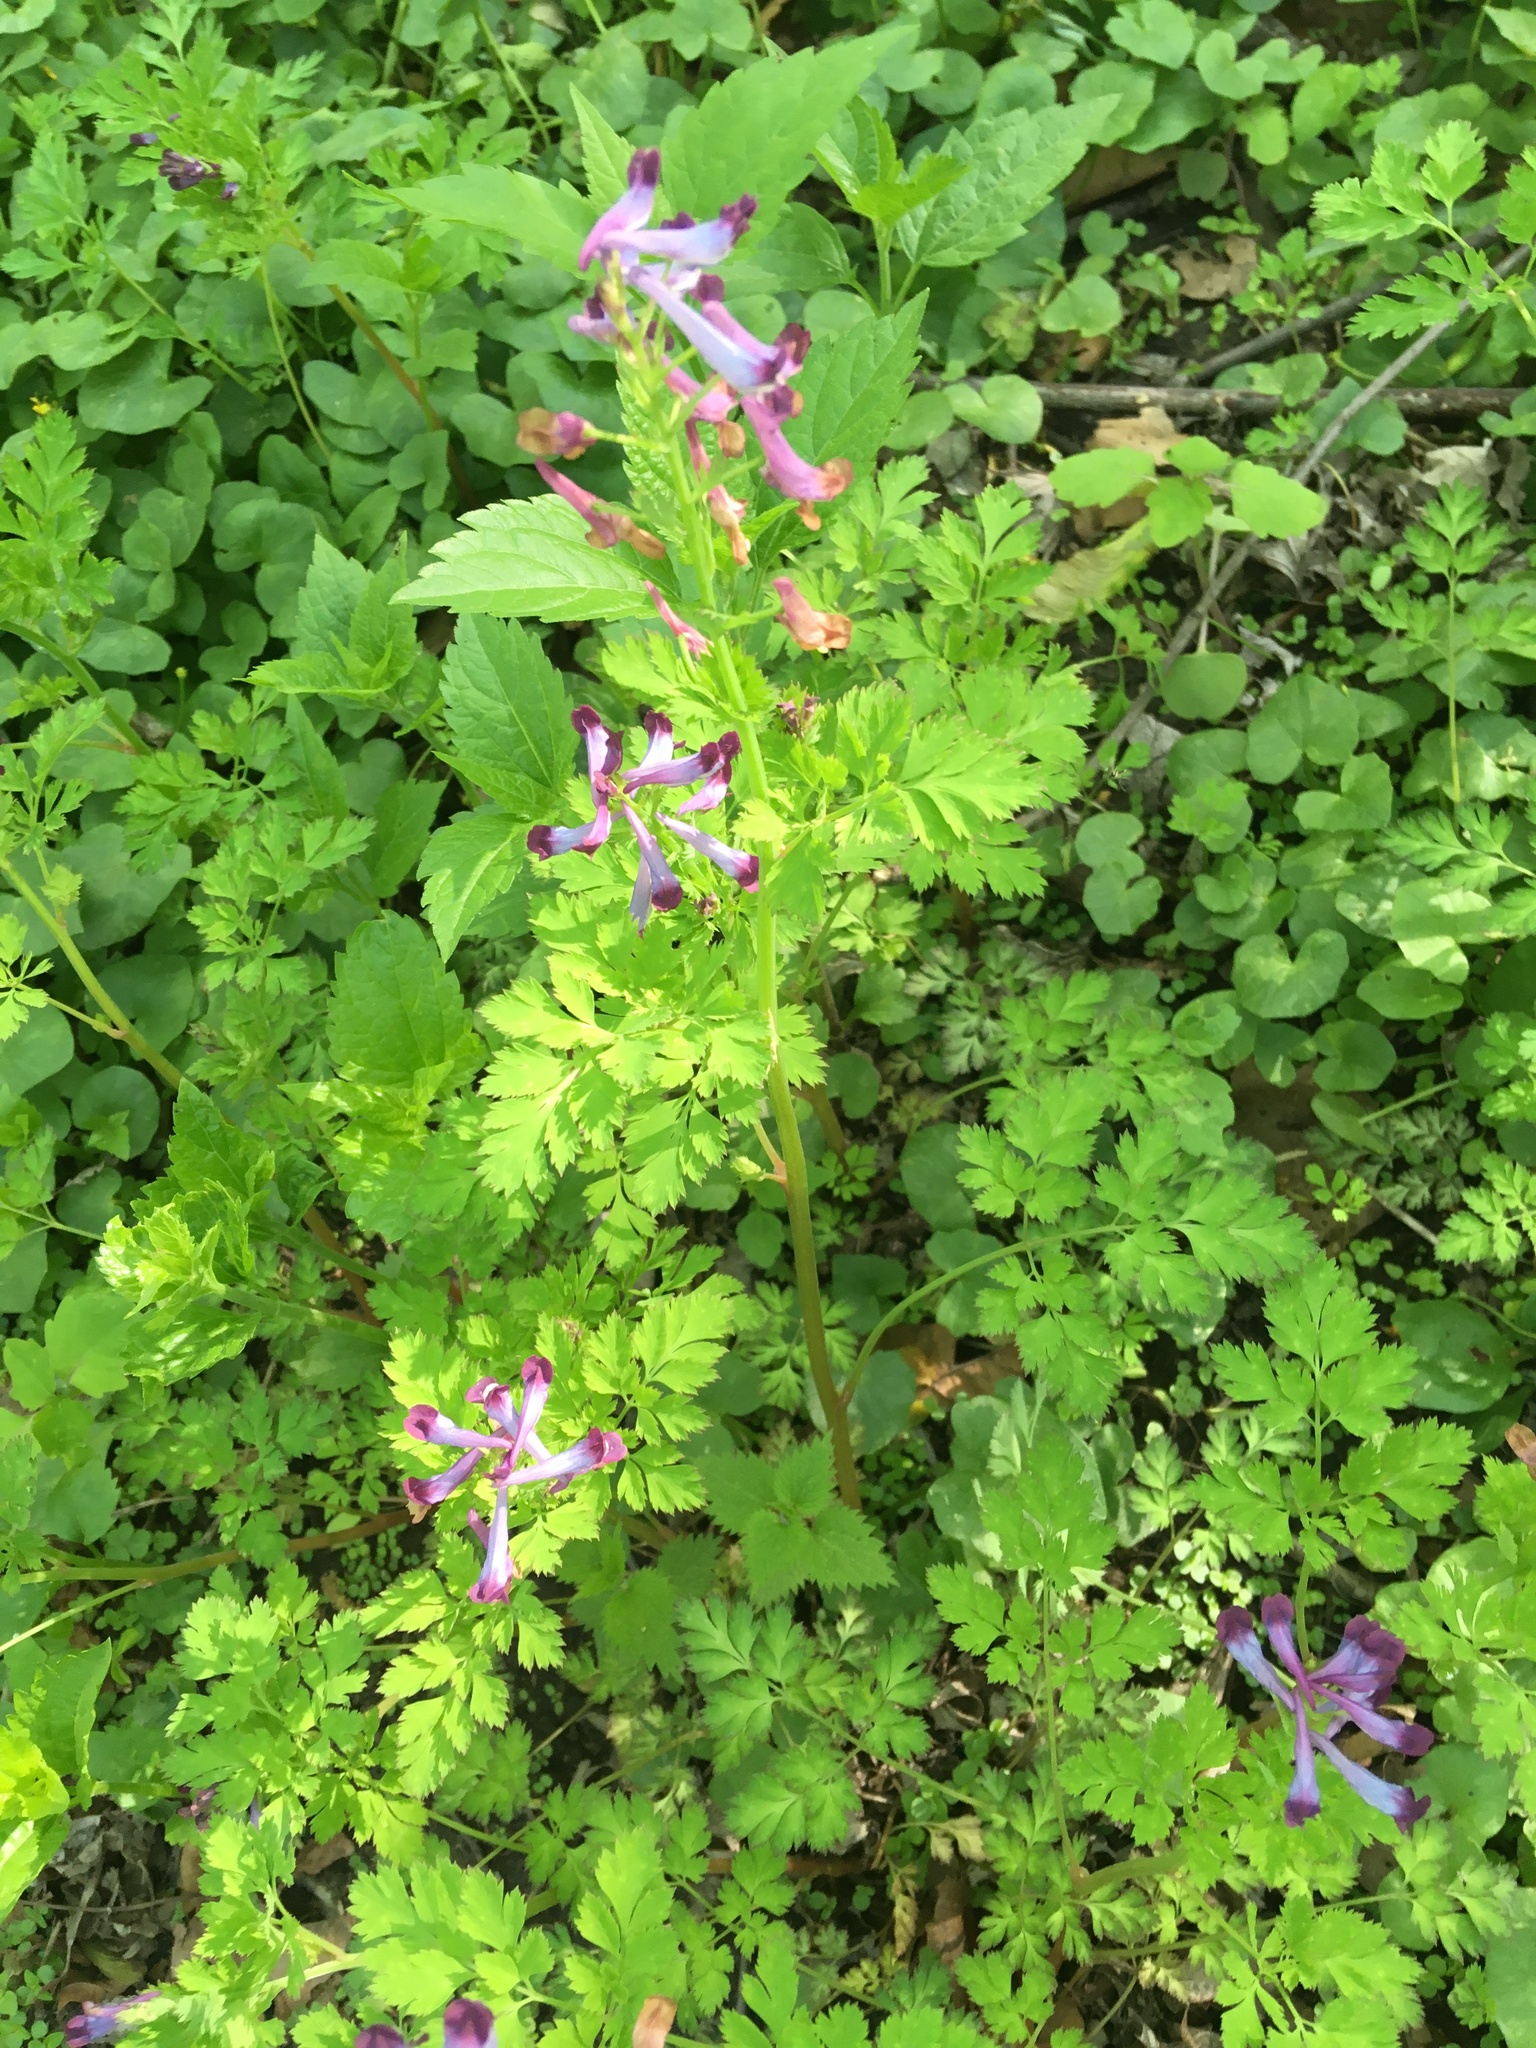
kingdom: Plantae
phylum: Tracheophyta
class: Magnoliopsida
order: Ranunculales
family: Papaveraceae
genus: Corydalis
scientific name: Corydalis incisa
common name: Incised fumewort
